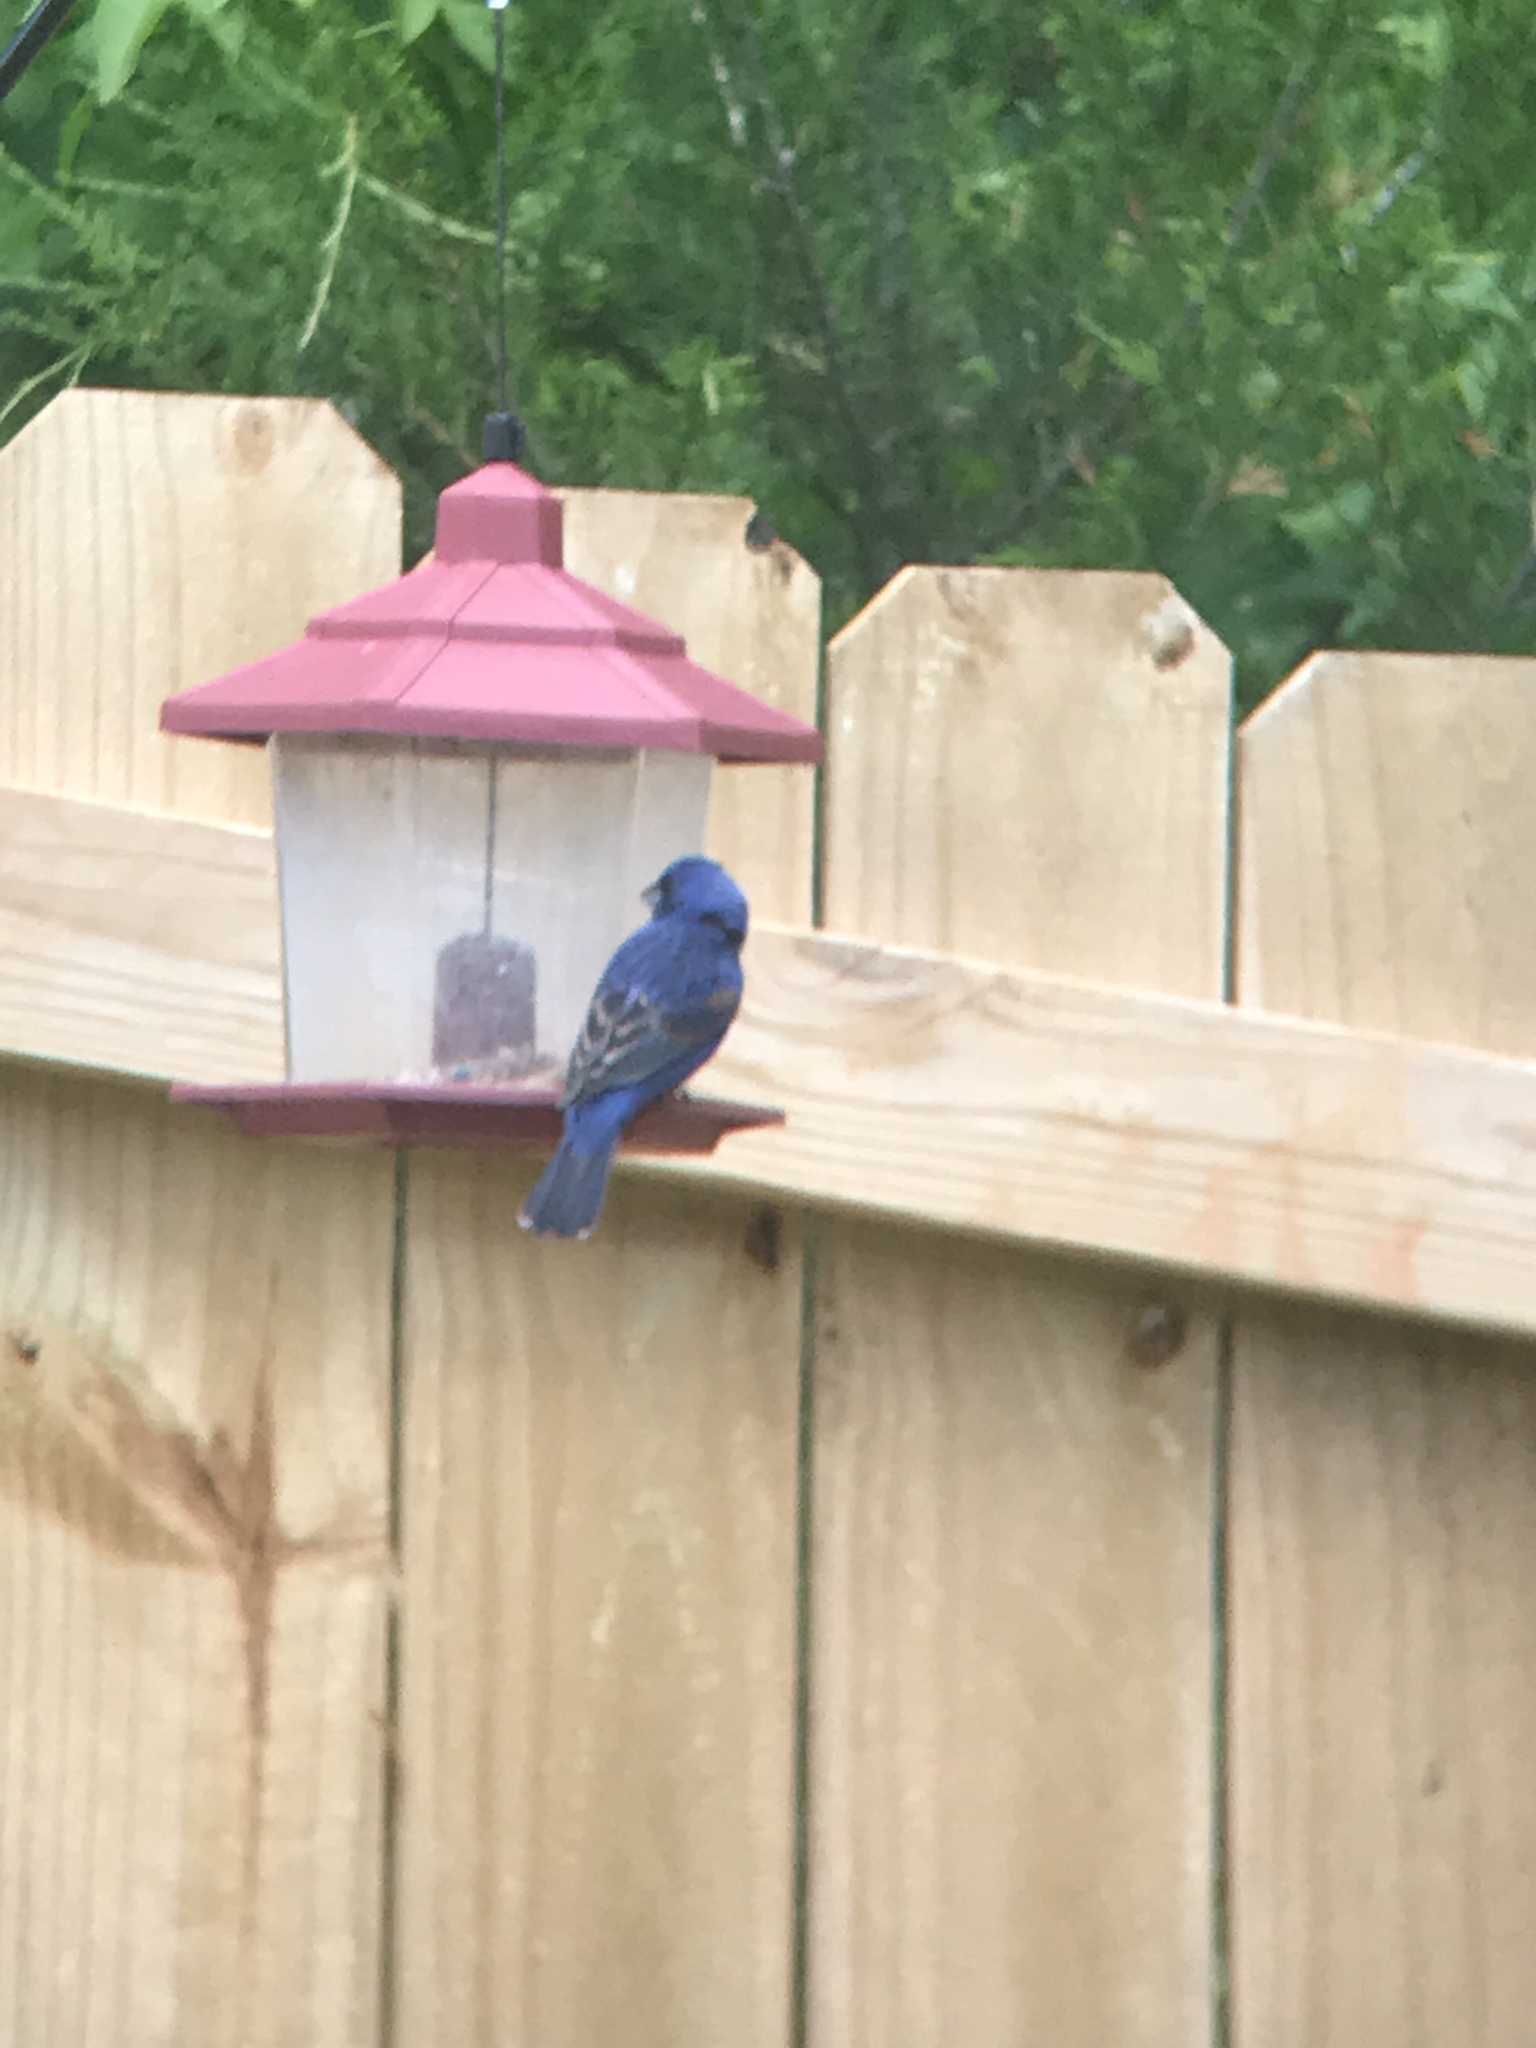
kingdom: Animalia
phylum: Chordata
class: Aves
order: Passeriformes
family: Cardinalidae
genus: Passerina
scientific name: Passerina caerulea
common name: Blue grosbeak
